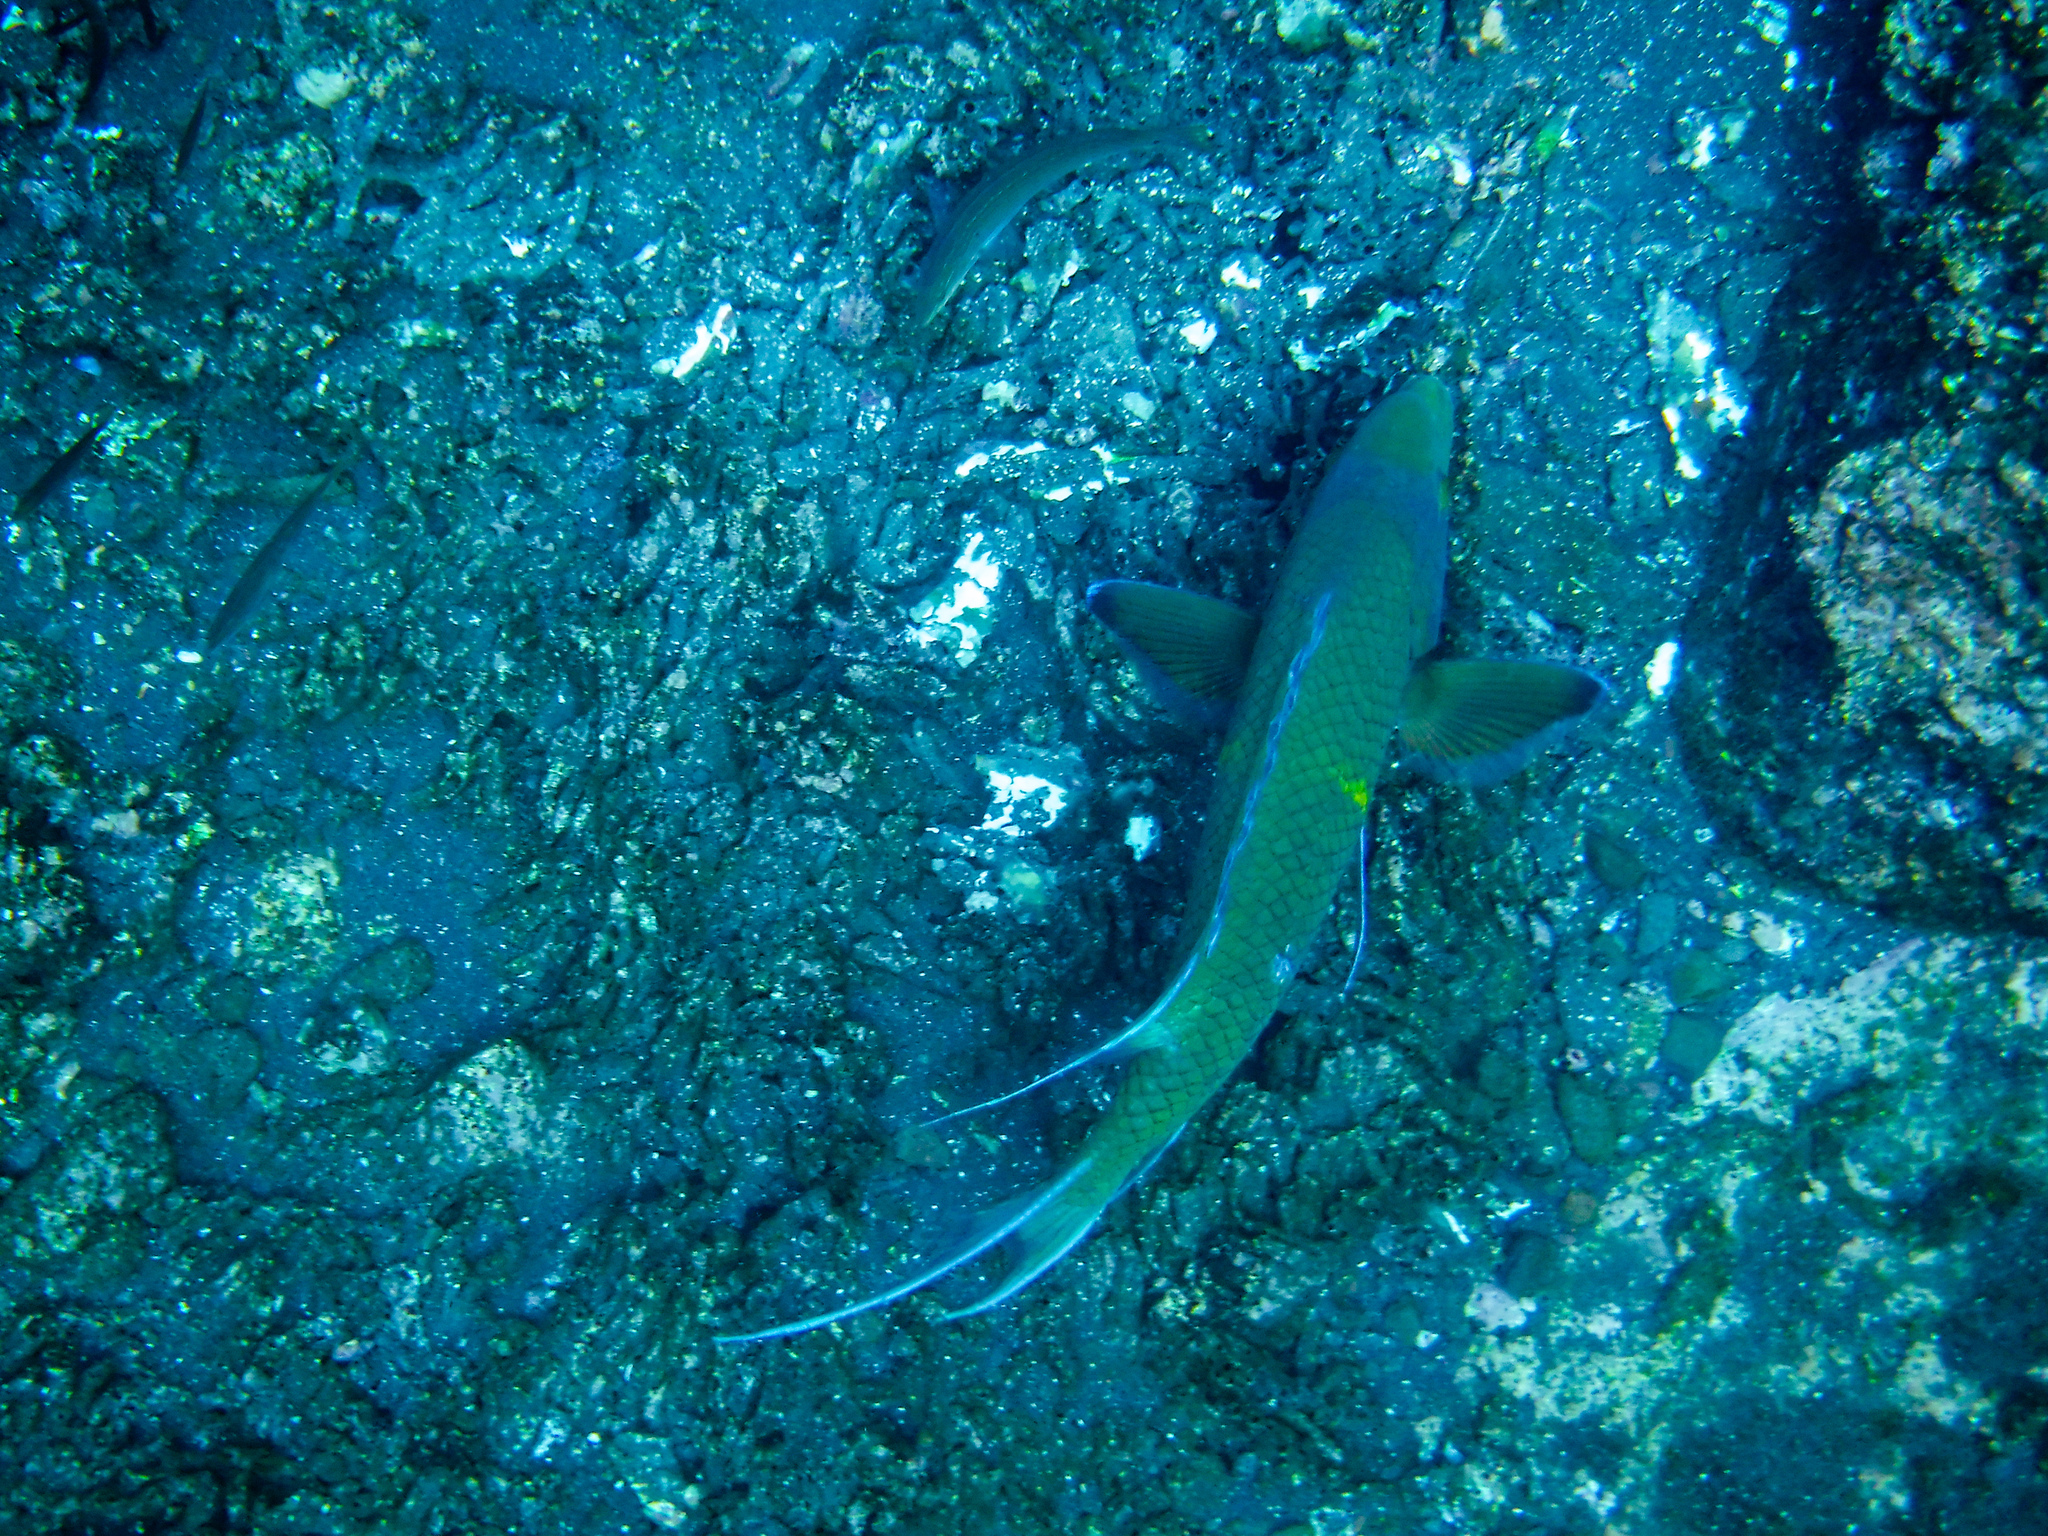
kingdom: Animalia
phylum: Chordata
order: Perciformes
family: Labridae
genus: Bodianus
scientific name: Bodianus diplotaenia
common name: Mexican hogfish
